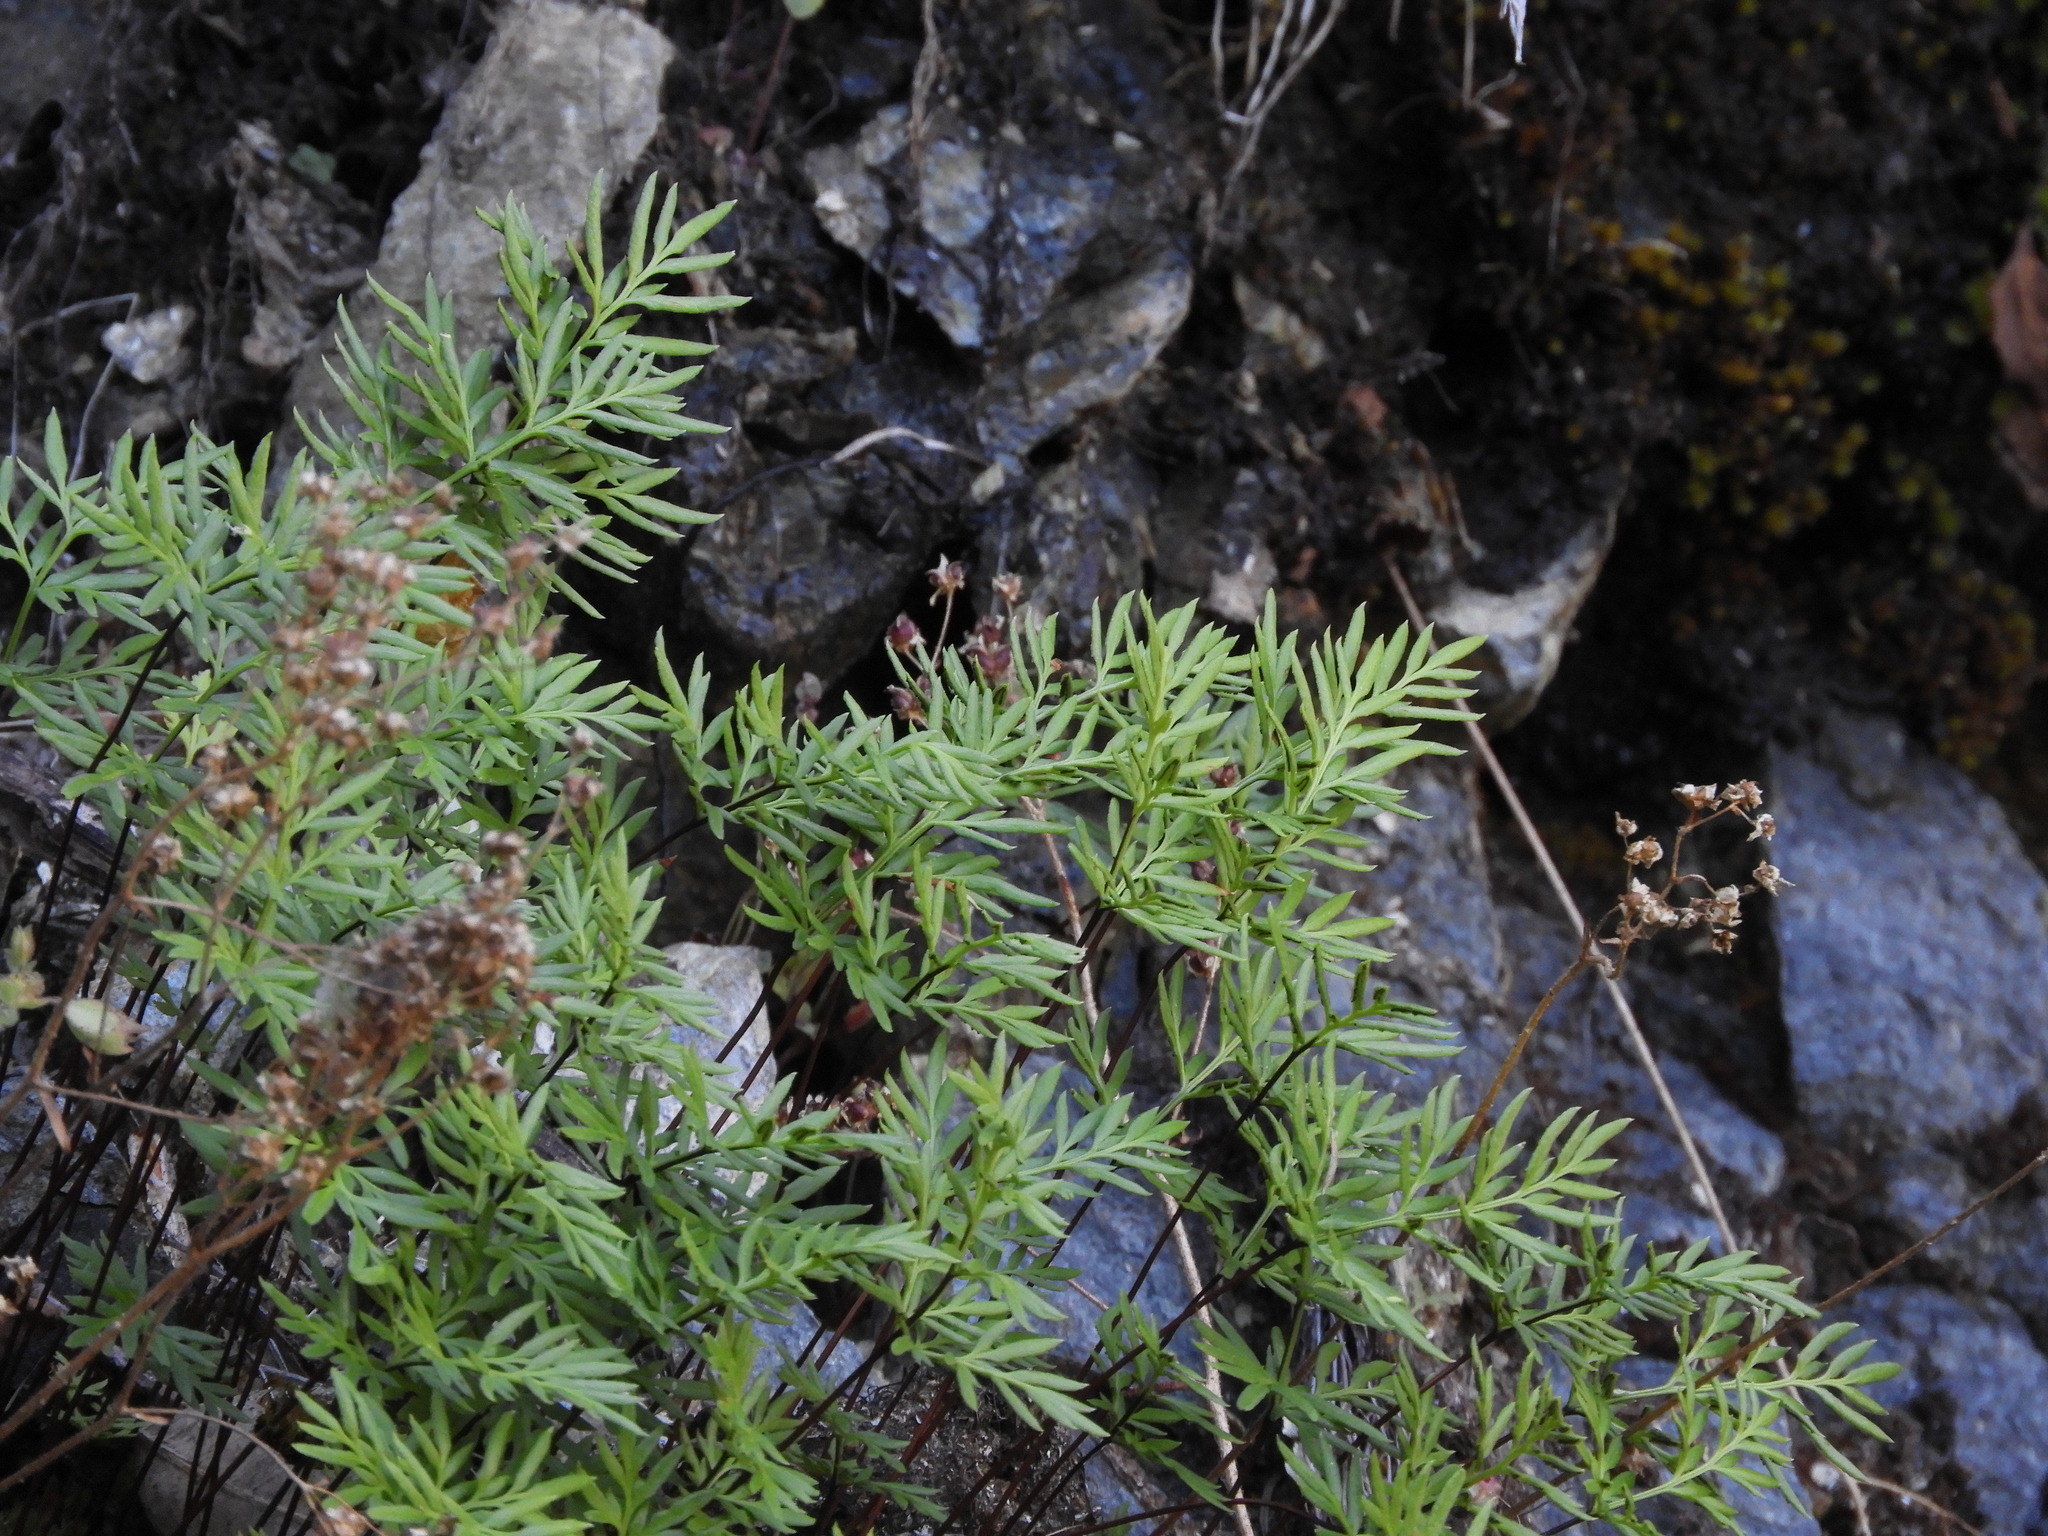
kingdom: Plantae
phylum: Tracheophyta
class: Polypodiopsida
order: Polypodiales
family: Pteridaceae
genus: Aspidotis
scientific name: Aspidotis densa
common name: Indian's dream
